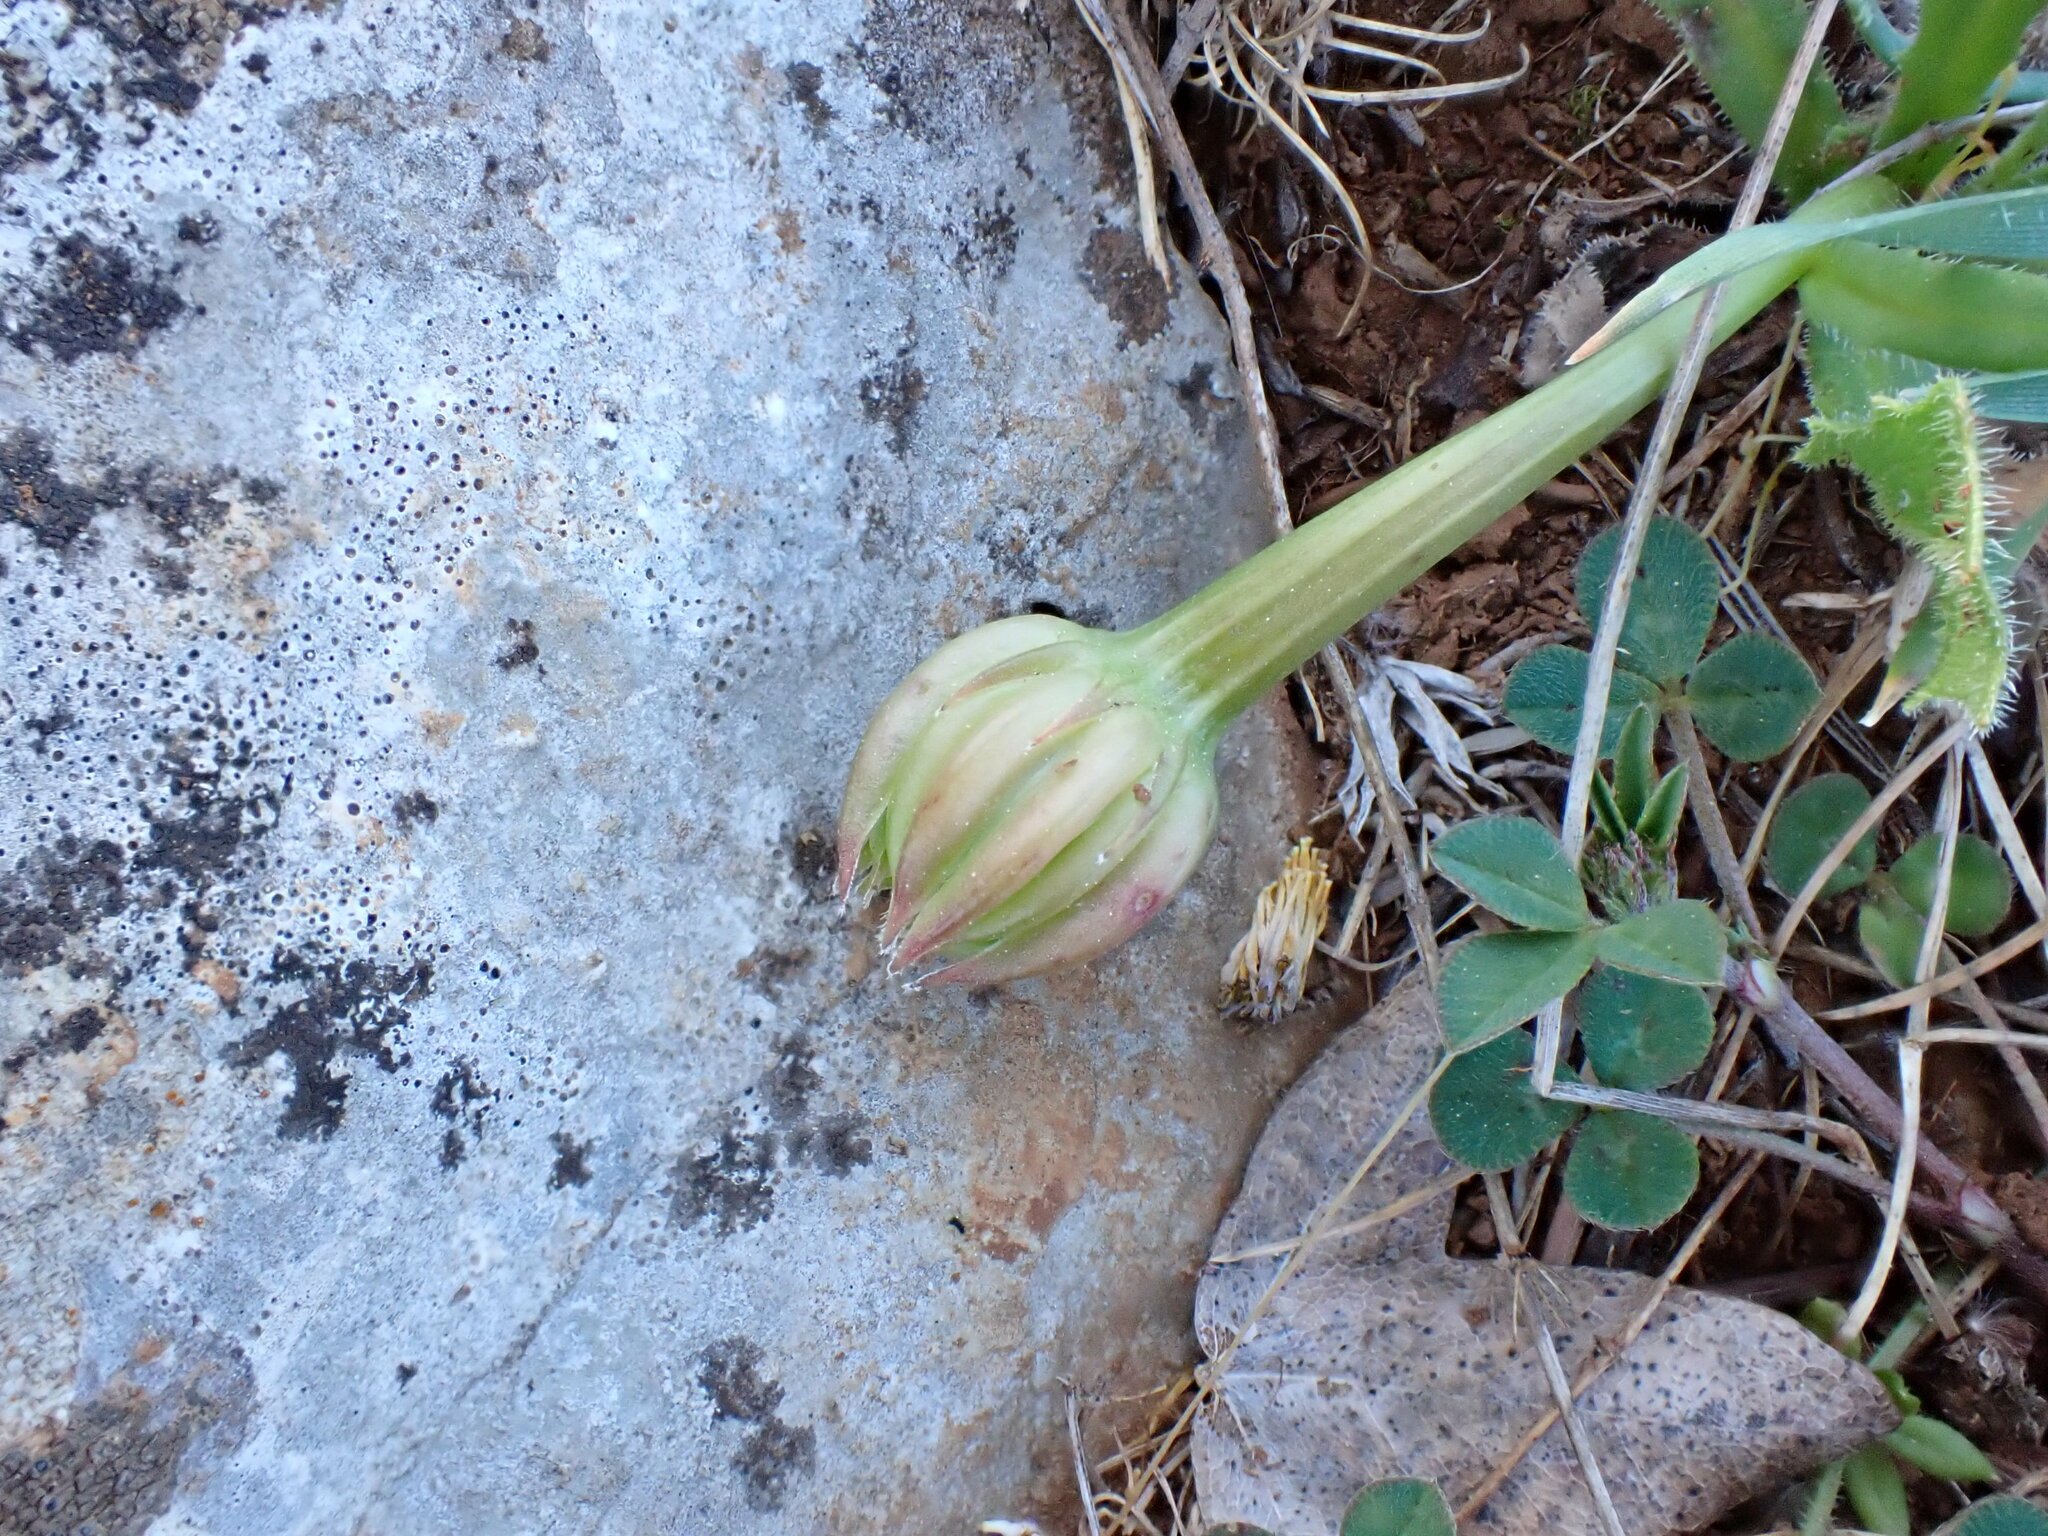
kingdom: Plantae
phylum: Tracheophyta
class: Magnoliopsida
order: Asterales
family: Asteraceae
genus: Hedypnois
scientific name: Hedypnois rhagadioloides
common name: Cretan weed
